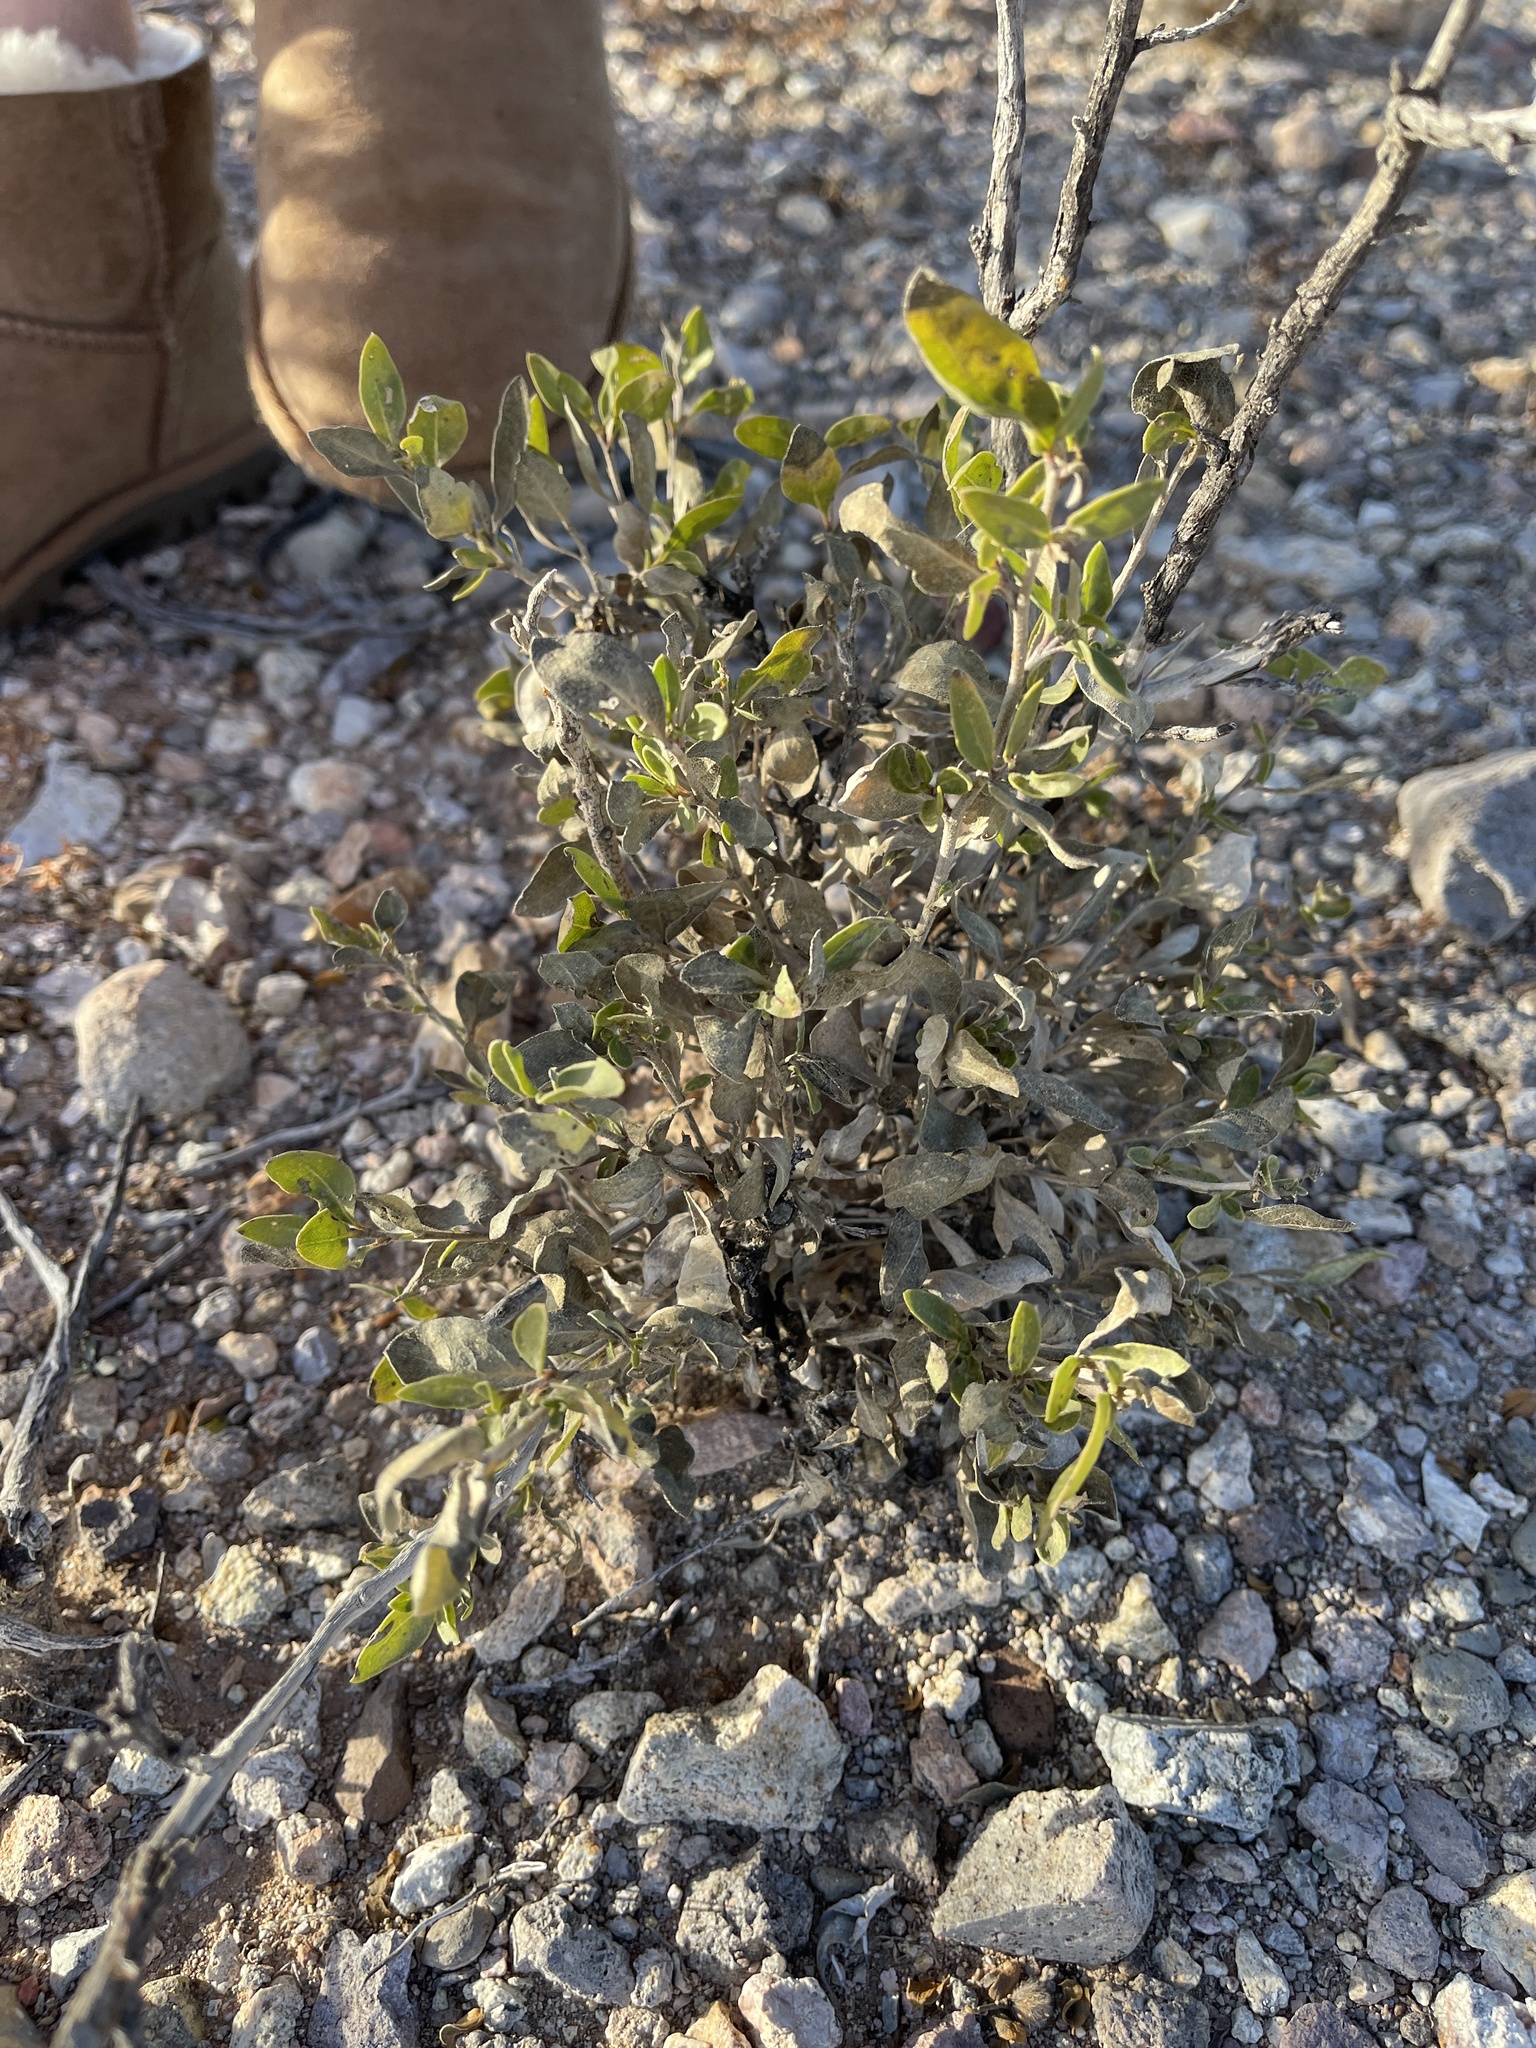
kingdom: Plantae
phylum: Tracheophyta
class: Magnoliopsida
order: Asterales
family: Asteraceae
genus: Flourensia
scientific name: Flourensia cernua
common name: Varnishbush
